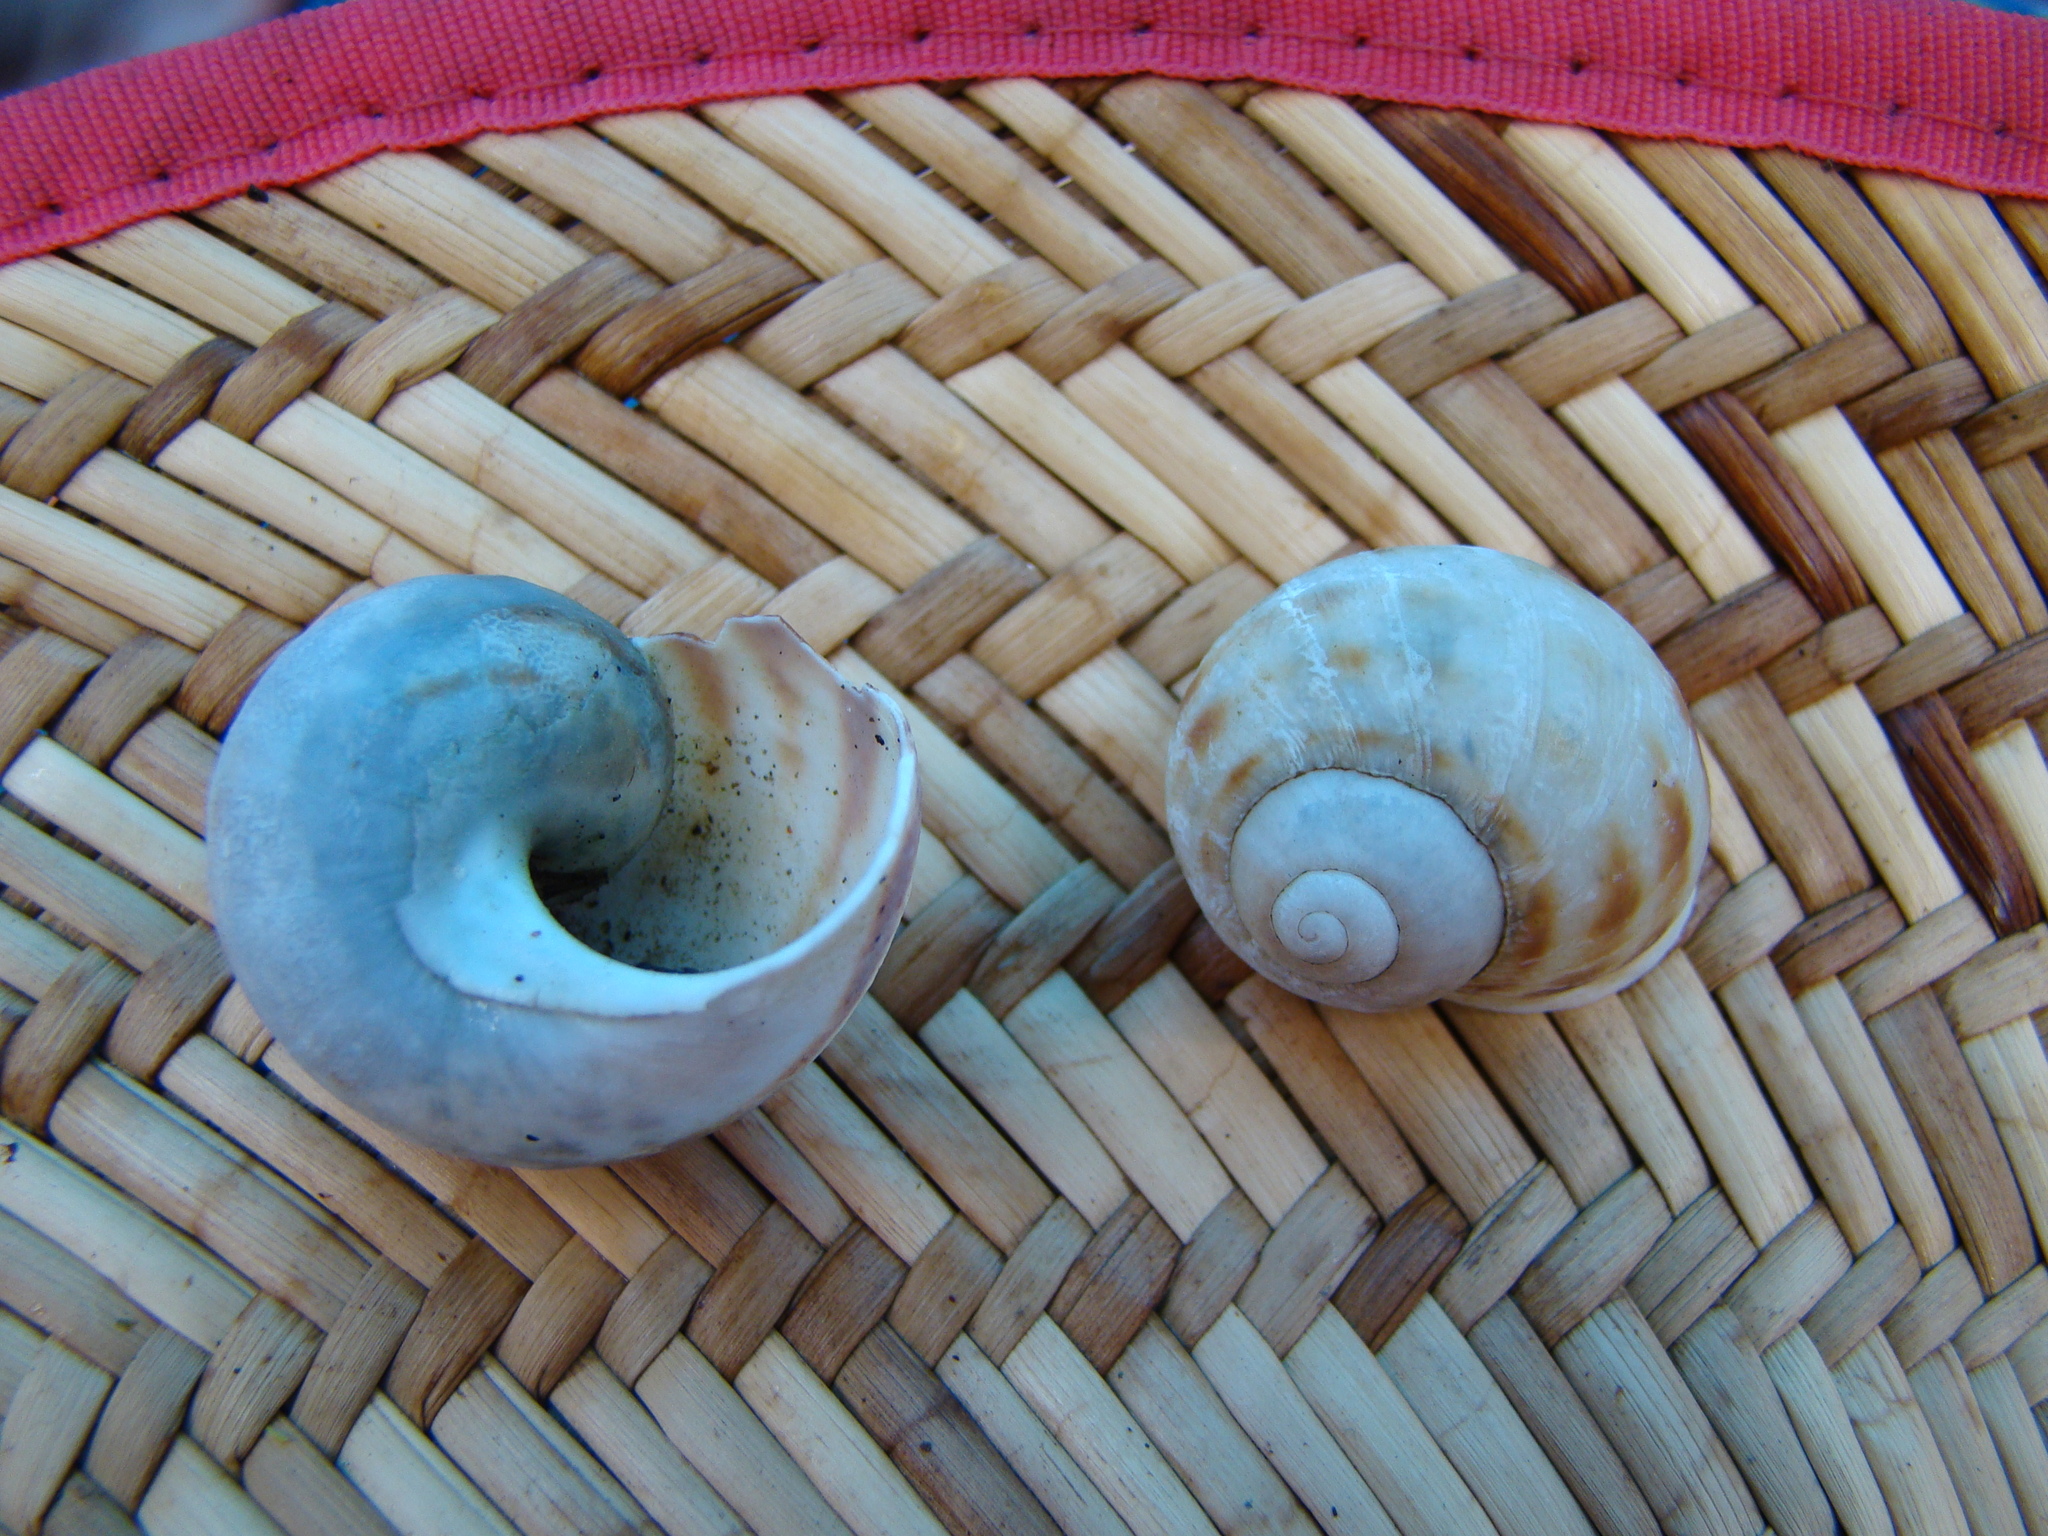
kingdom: Animalia
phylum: Mollusca
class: Gastropoda
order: Stylommatophora
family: Helicidae
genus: Cornu
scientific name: Cornu aspersum
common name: Brown garden snail
